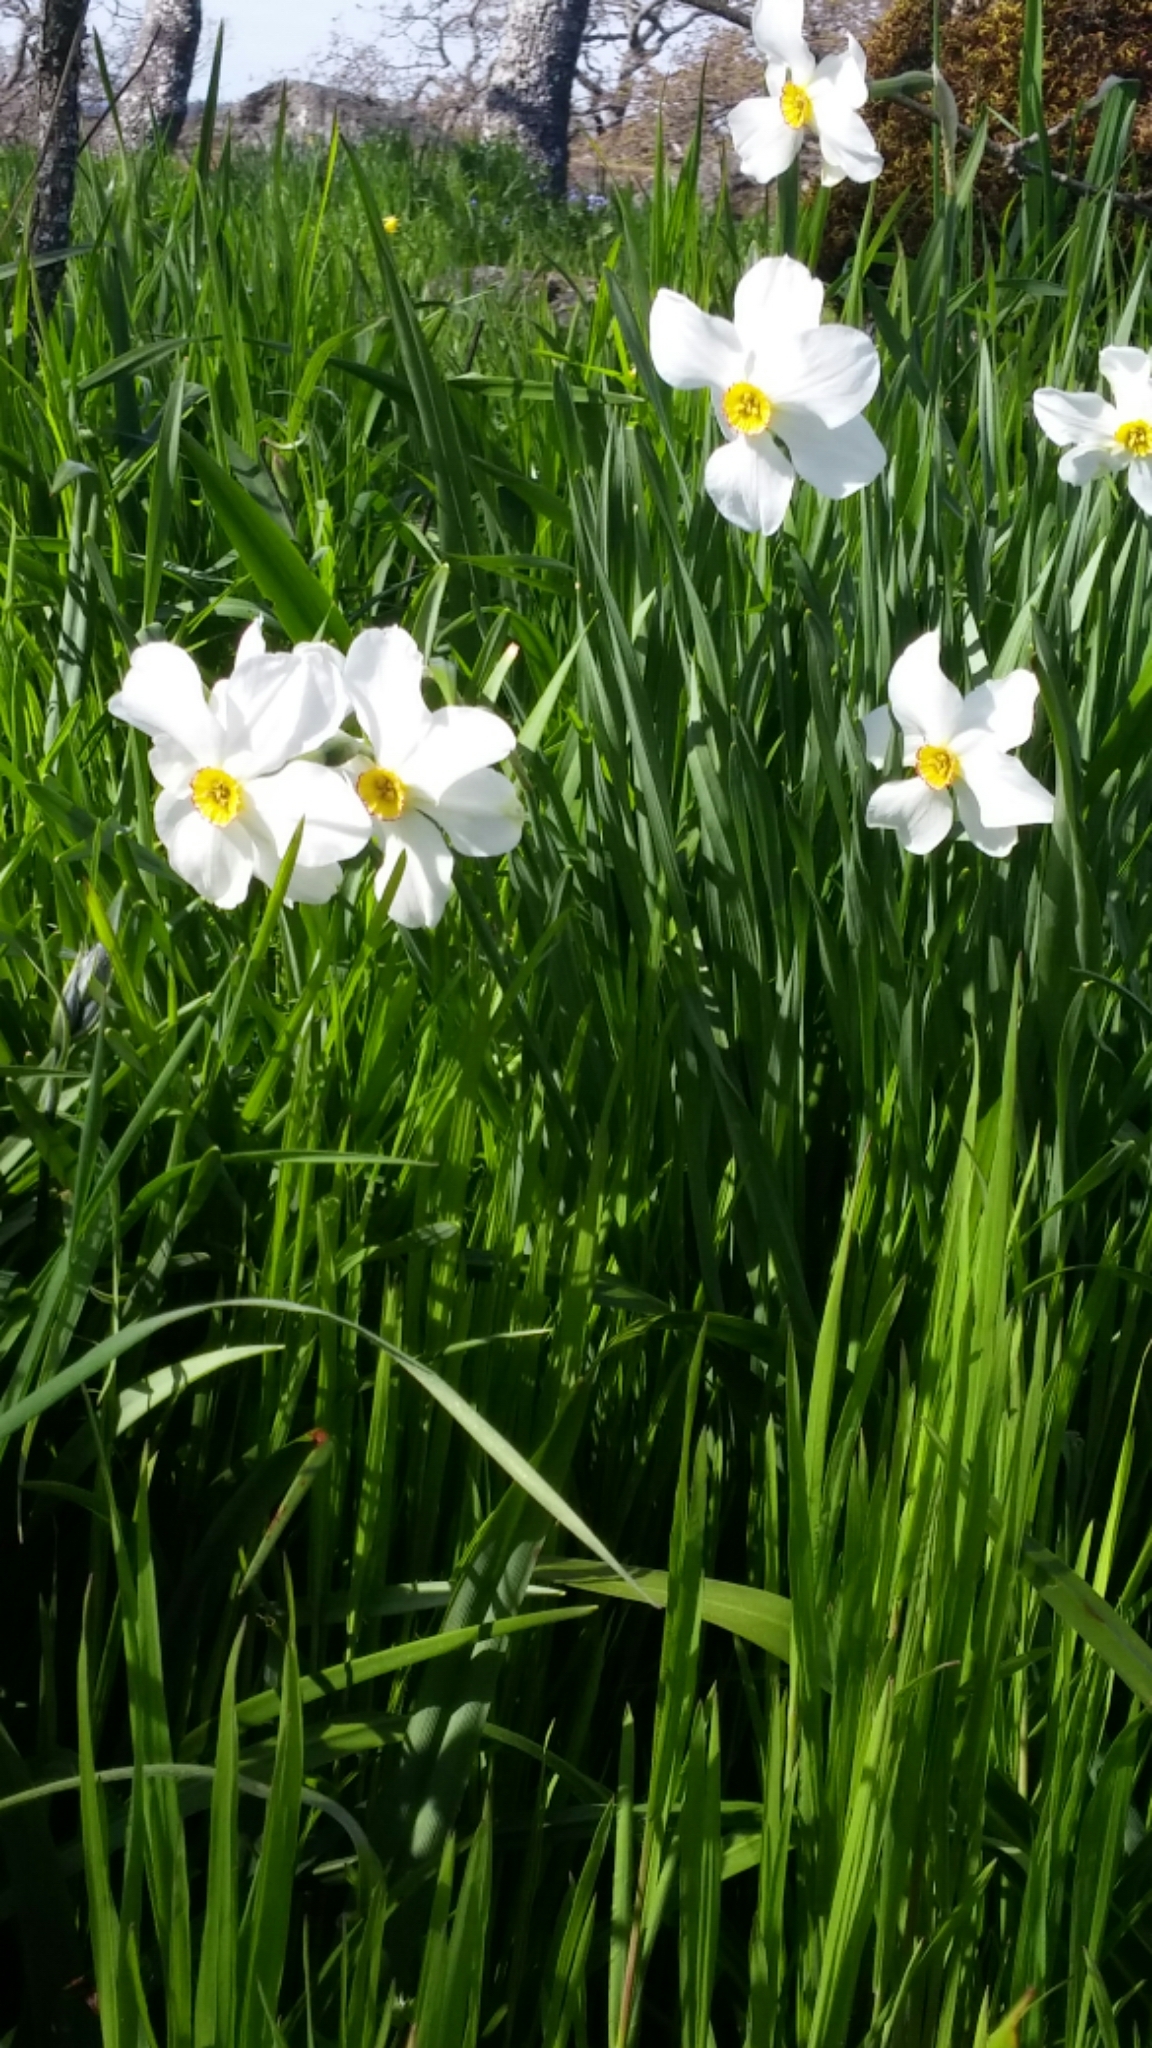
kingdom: Plantae
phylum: Tracheophyta
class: Liliopsida
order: Asparagales
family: Amaryllidaceae
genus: Narcissus
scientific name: Narcissus poeticus
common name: Pheasant's-eye daffodil
